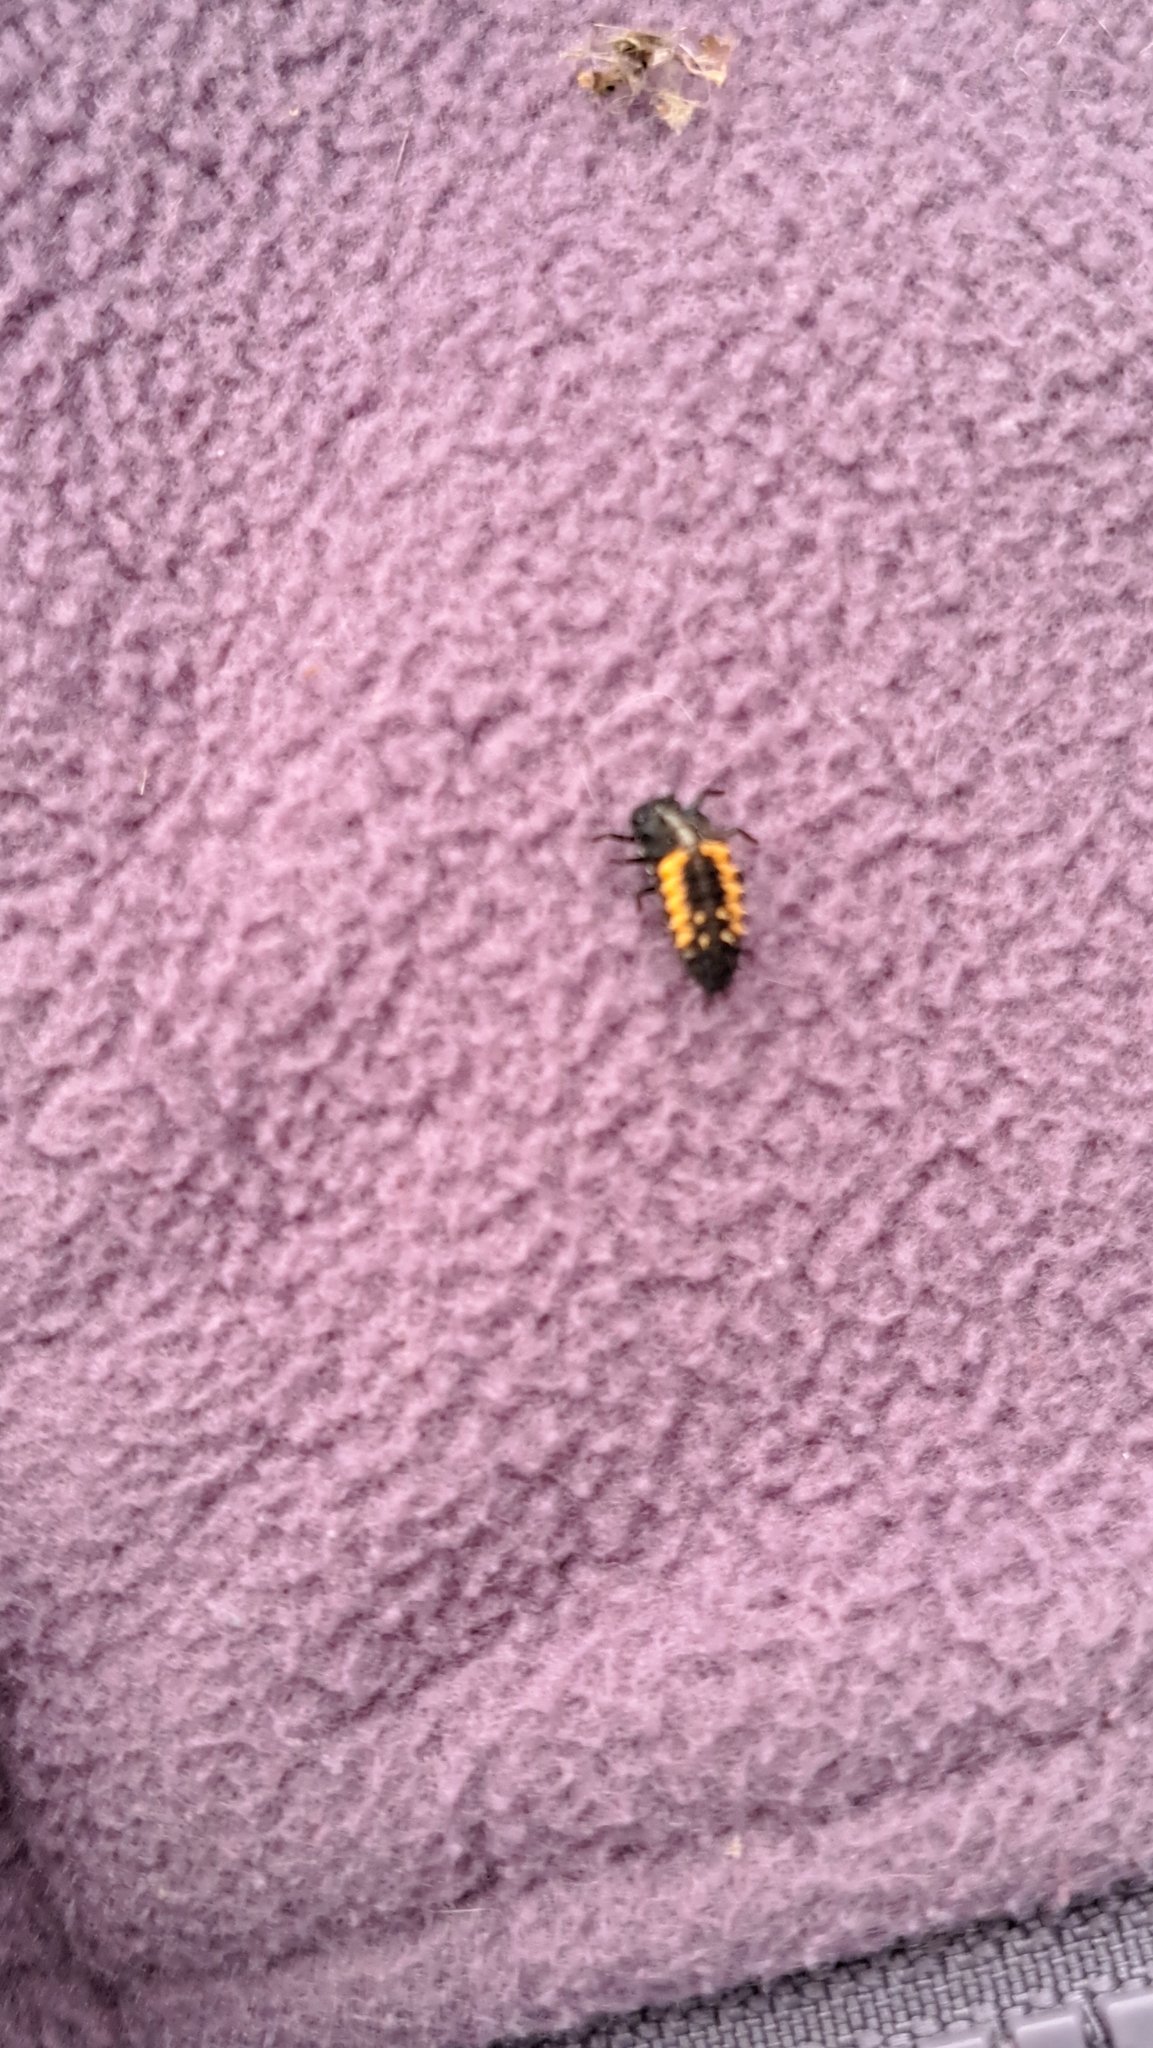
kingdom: Animalia
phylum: Arthropoda
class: Insecta
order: Coleoptera
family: Coccinellidae
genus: Harmonia
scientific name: Harmonia axyridis
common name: Harlequin ladybird
